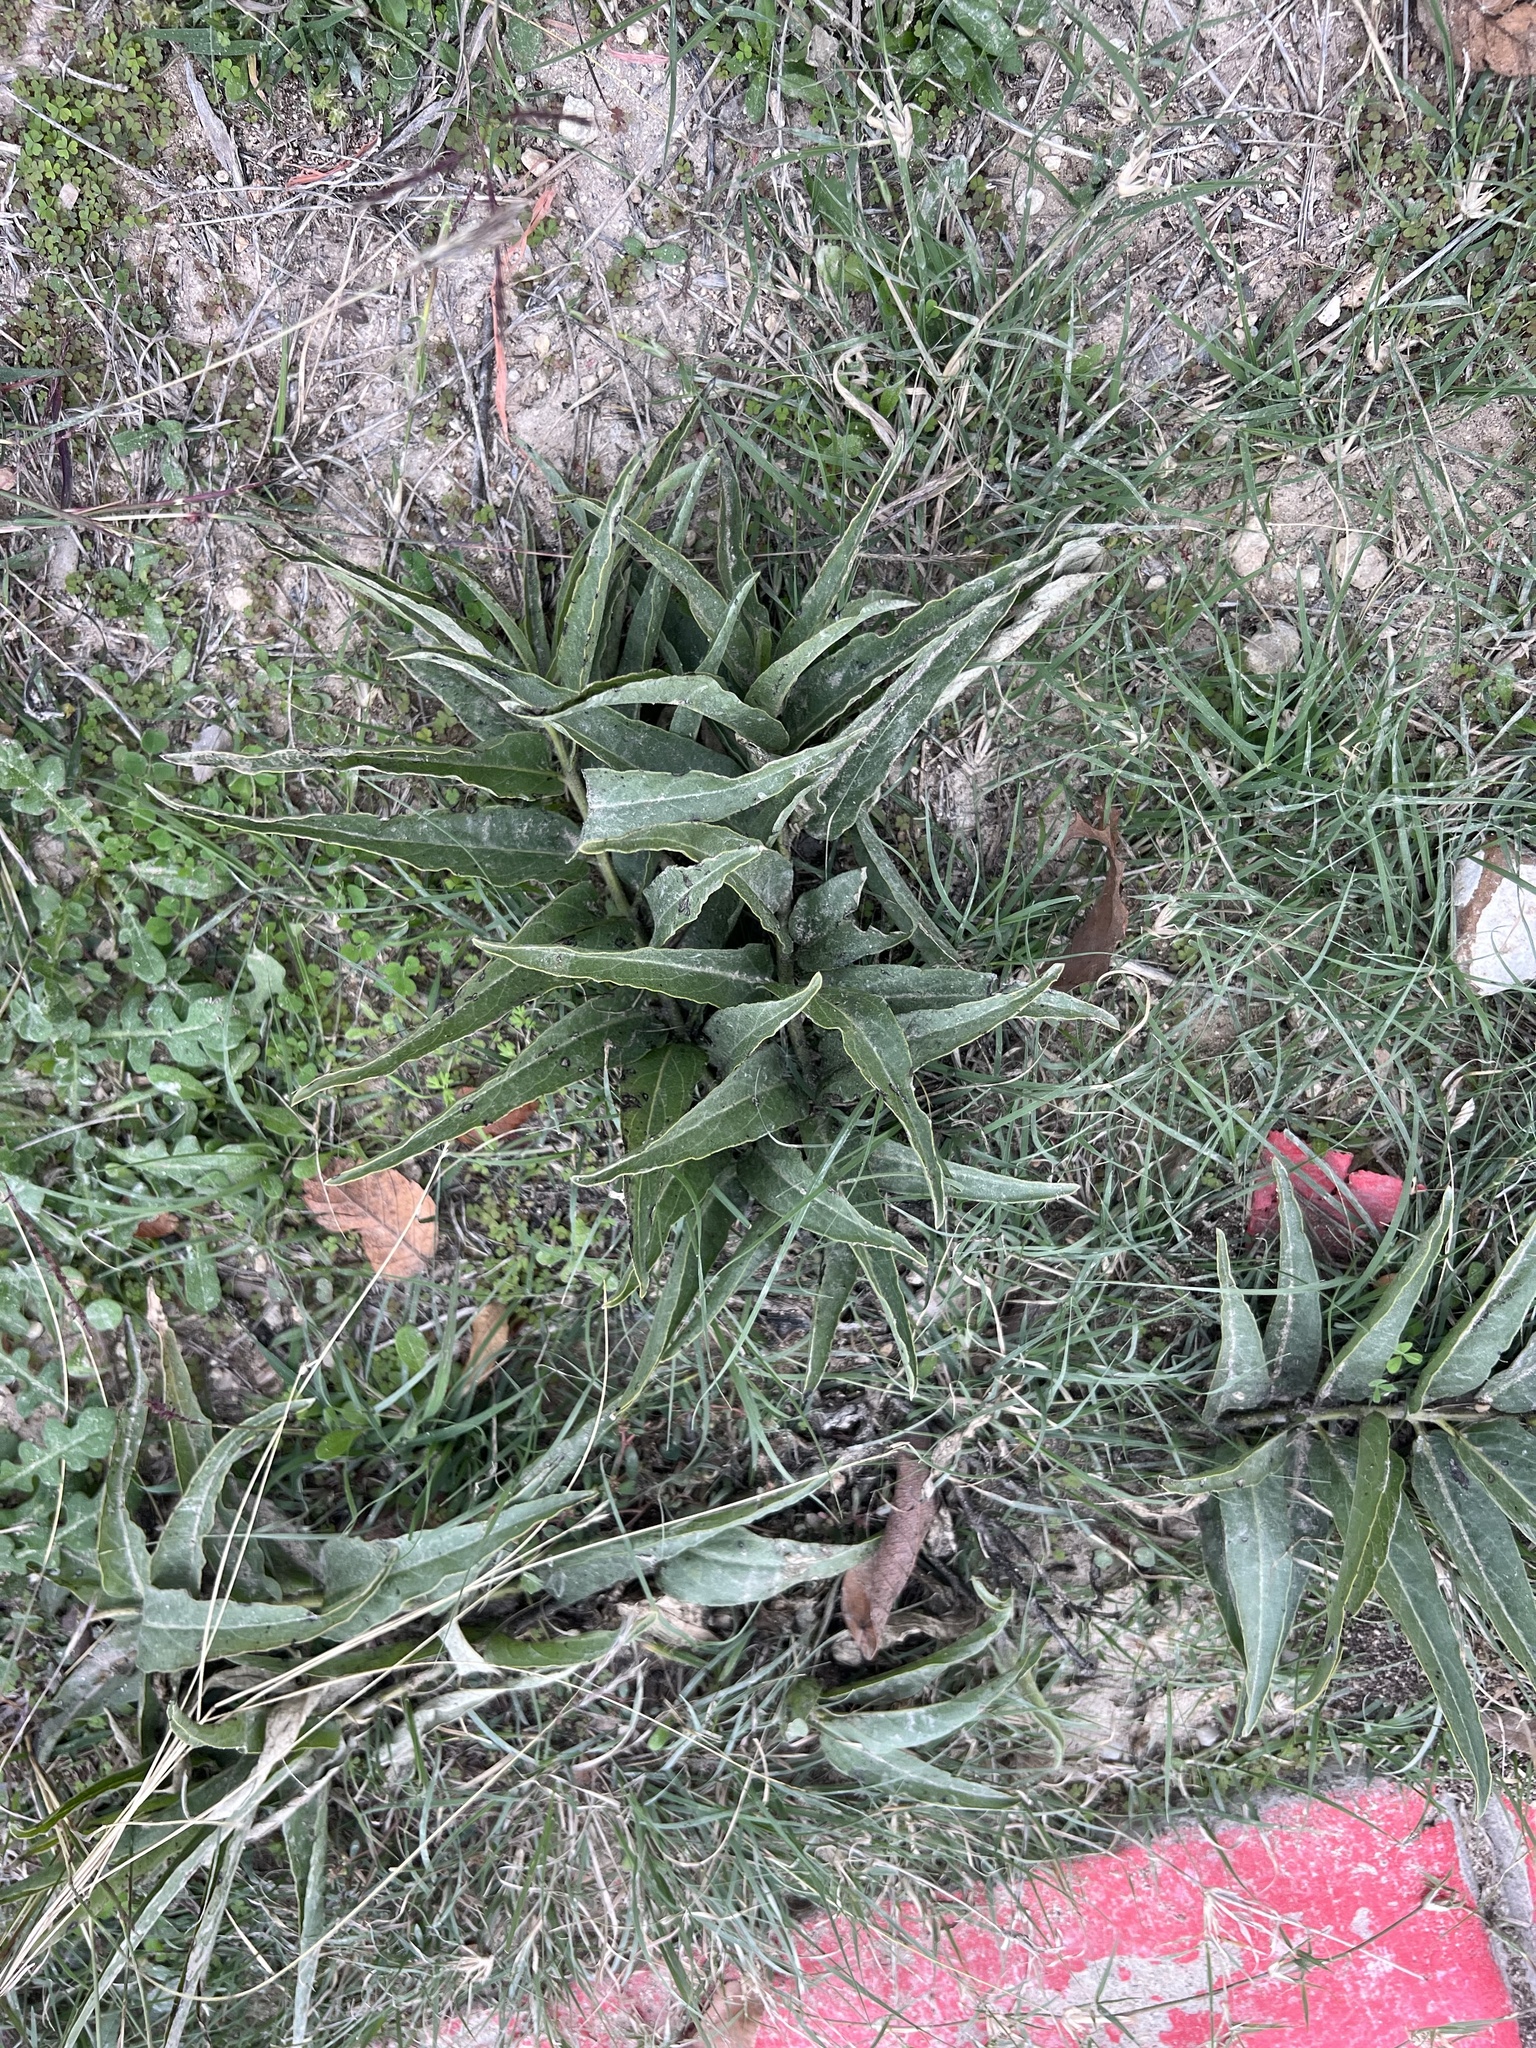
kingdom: Plantae
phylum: Tracheophyta
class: Magnoliopsida
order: Gentianales
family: Apocynaceae
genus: Asclepias
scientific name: Asclepias asperula
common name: Antelope horns
